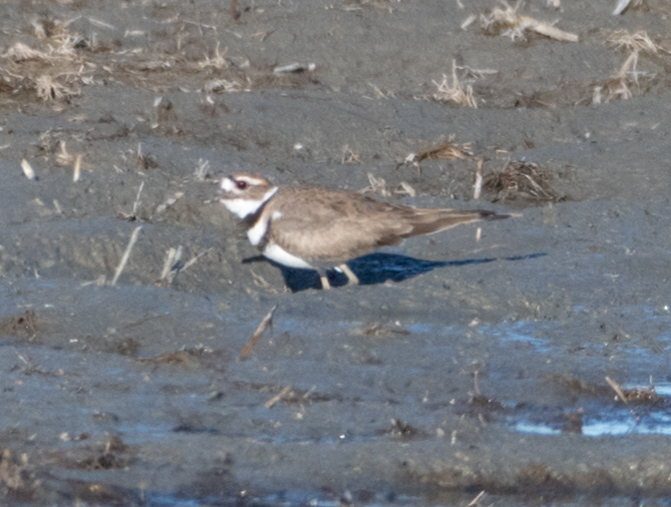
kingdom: Animalia
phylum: Chordata
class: Aves
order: Charadriiformes
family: Charadriidae
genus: Charadrius
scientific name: Charadrius vociferus
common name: Killdeer
